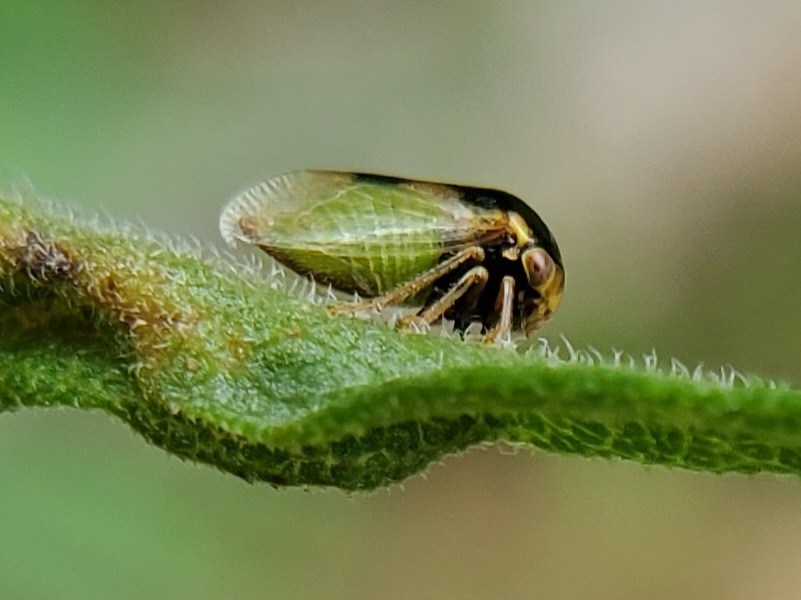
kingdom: Animalia
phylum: Arthropoda
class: Insecta
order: Hemiptera
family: Membracidae
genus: Micrutalis
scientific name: Micrutalis calva
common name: Honeylocust treehopper
